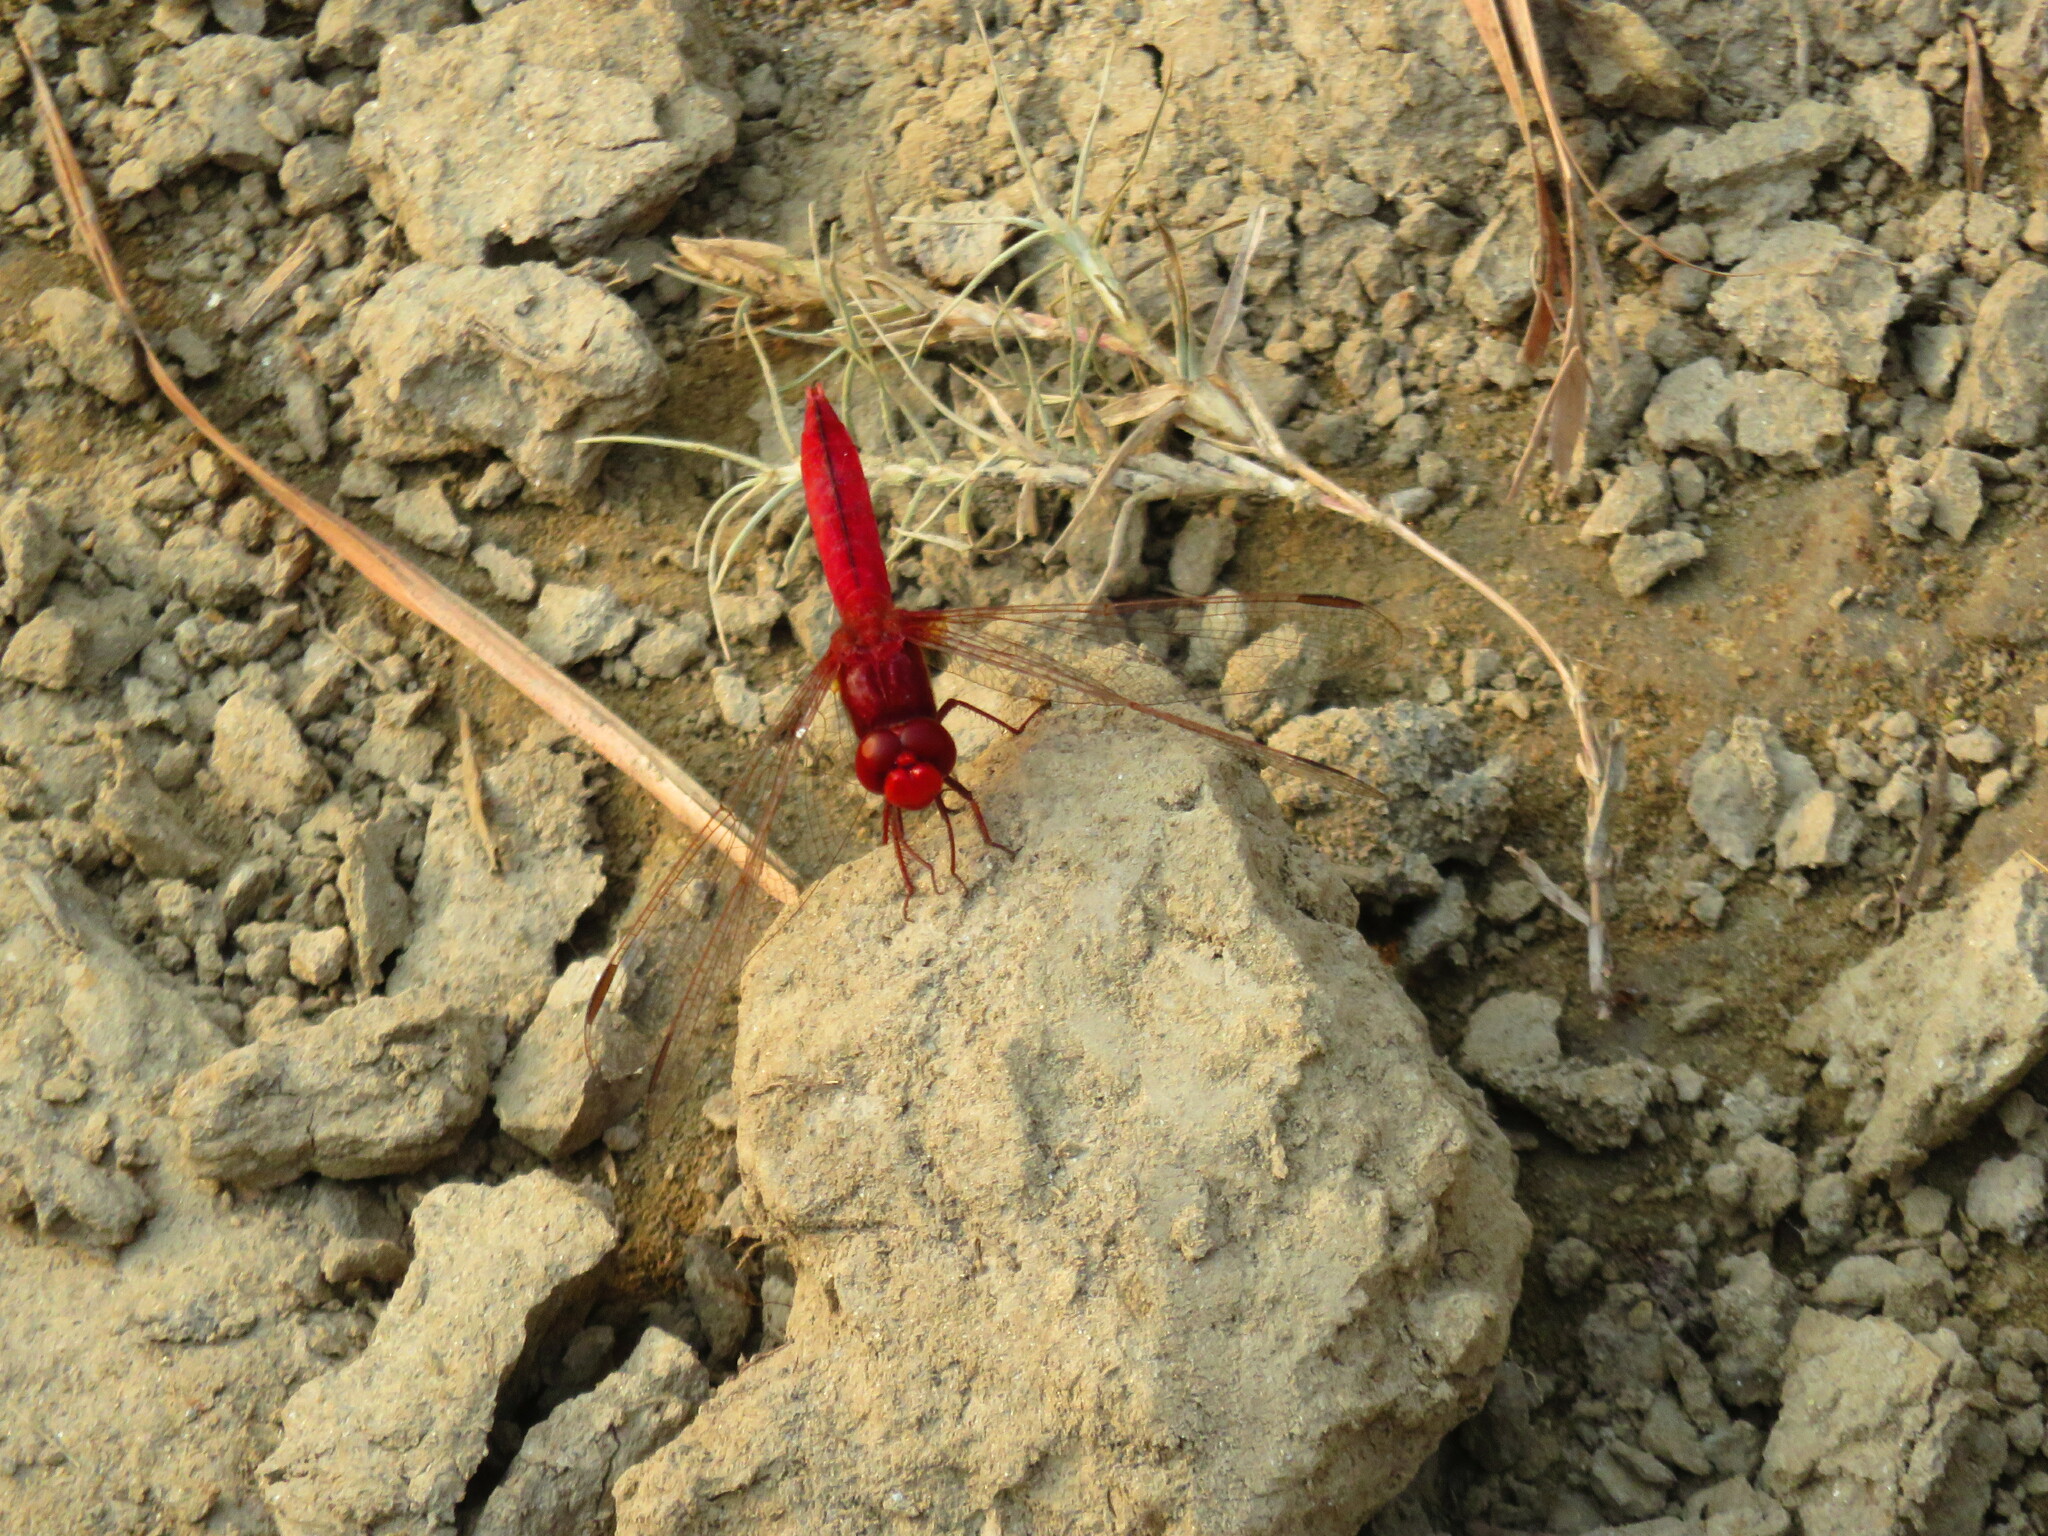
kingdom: Animalia
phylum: Arthropoda
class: Insecta
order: Odonata
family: Libellulidae
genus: Crocothemis
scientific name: Crocothemis servilia
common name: Scarlet skimmer
